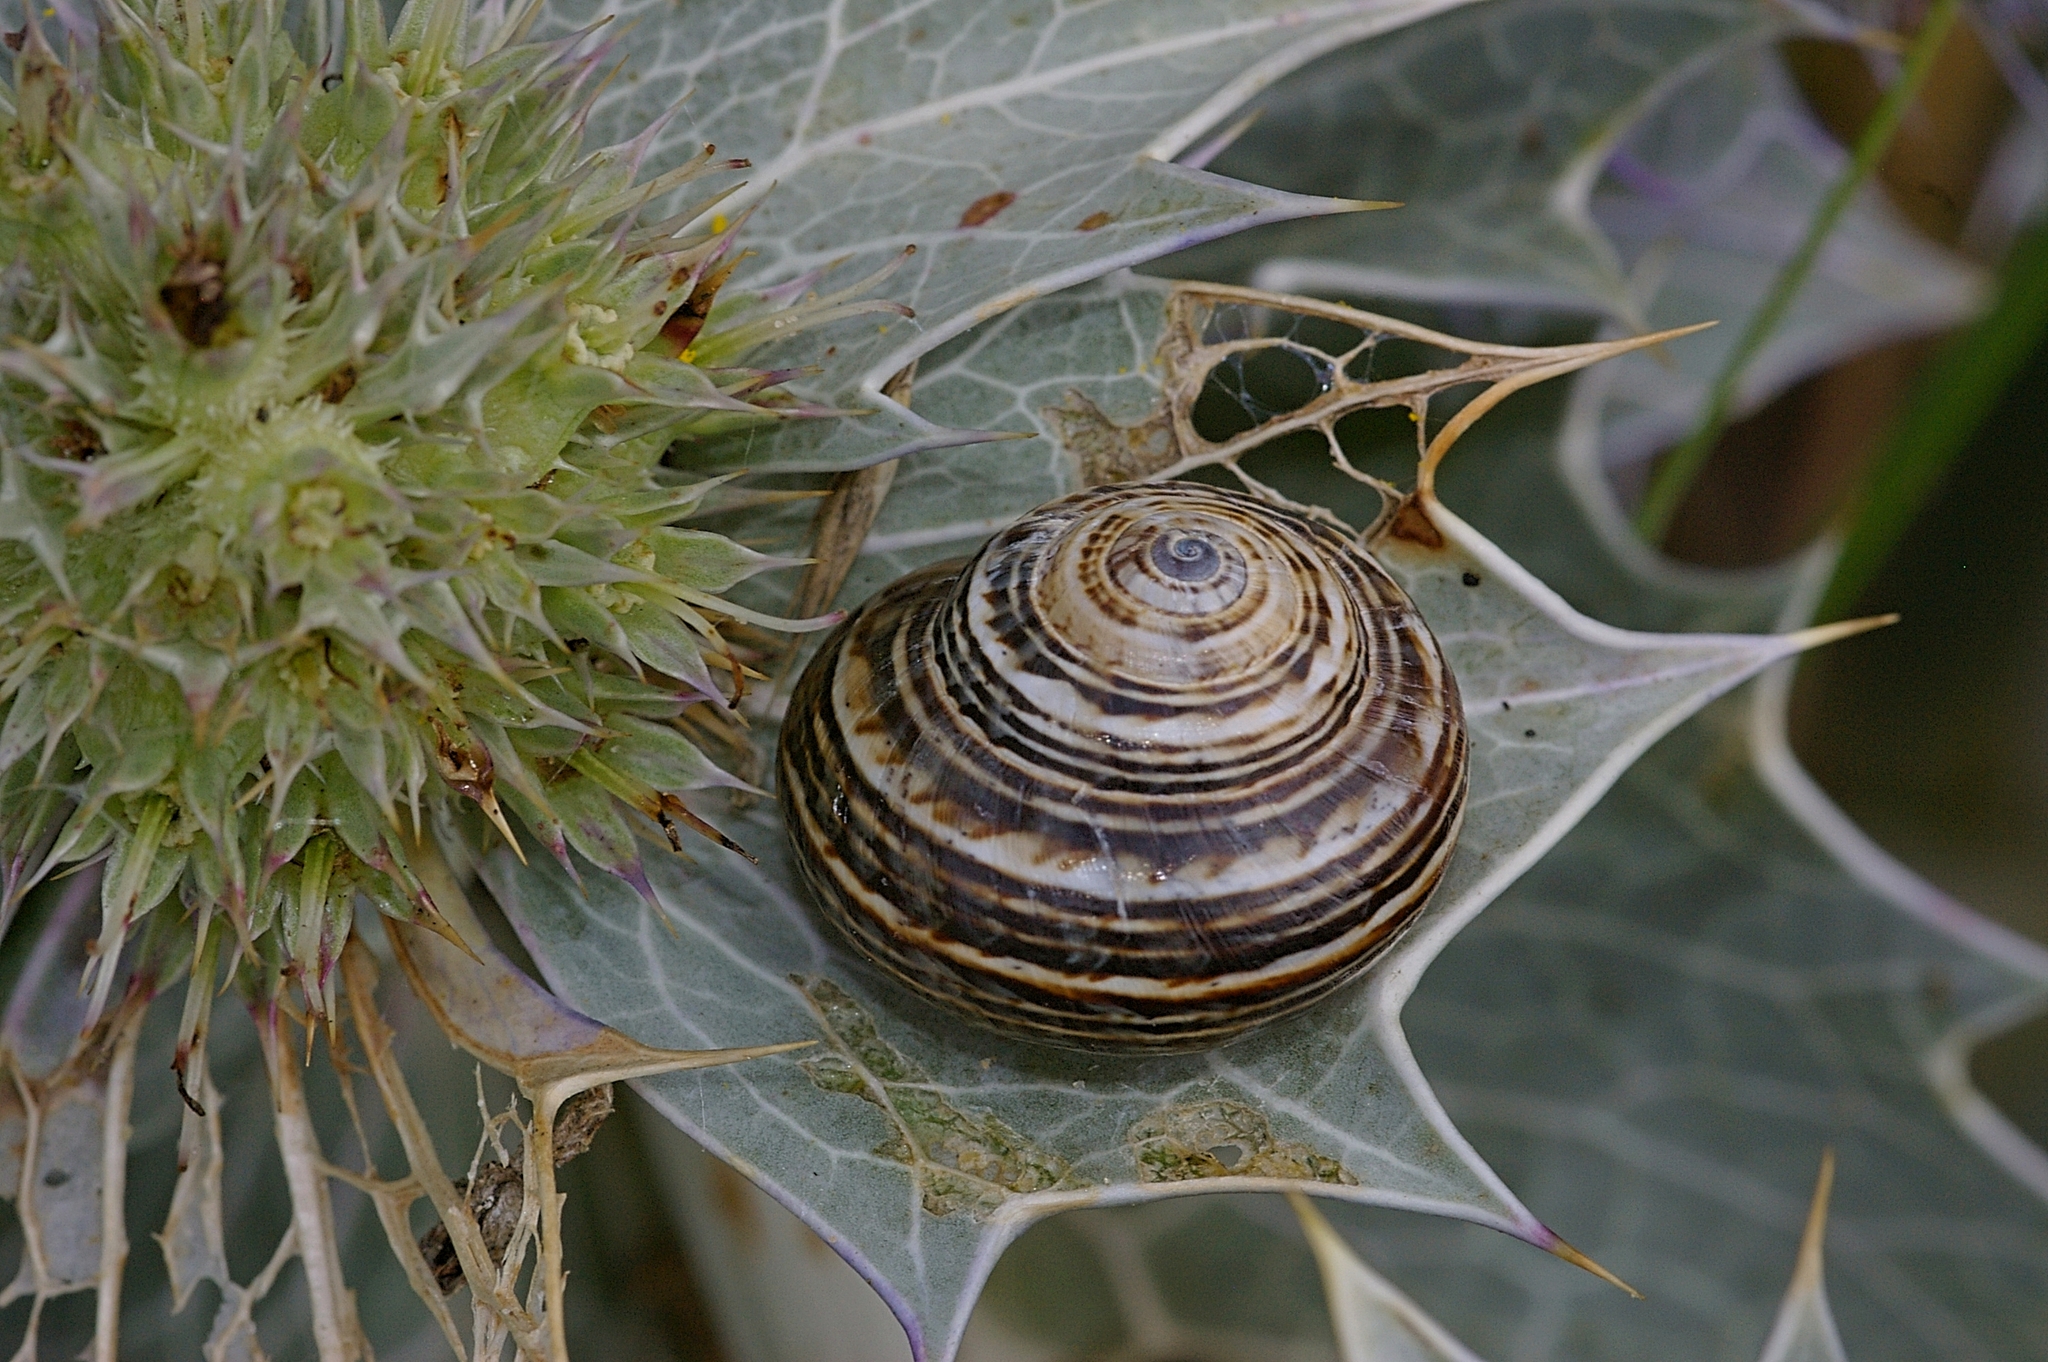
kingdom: Animalia
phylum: Mollusca
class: Gastropoda
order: Stylommatophora
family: Helicidae
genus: Theba
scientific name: Theba pisana
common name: White snail
